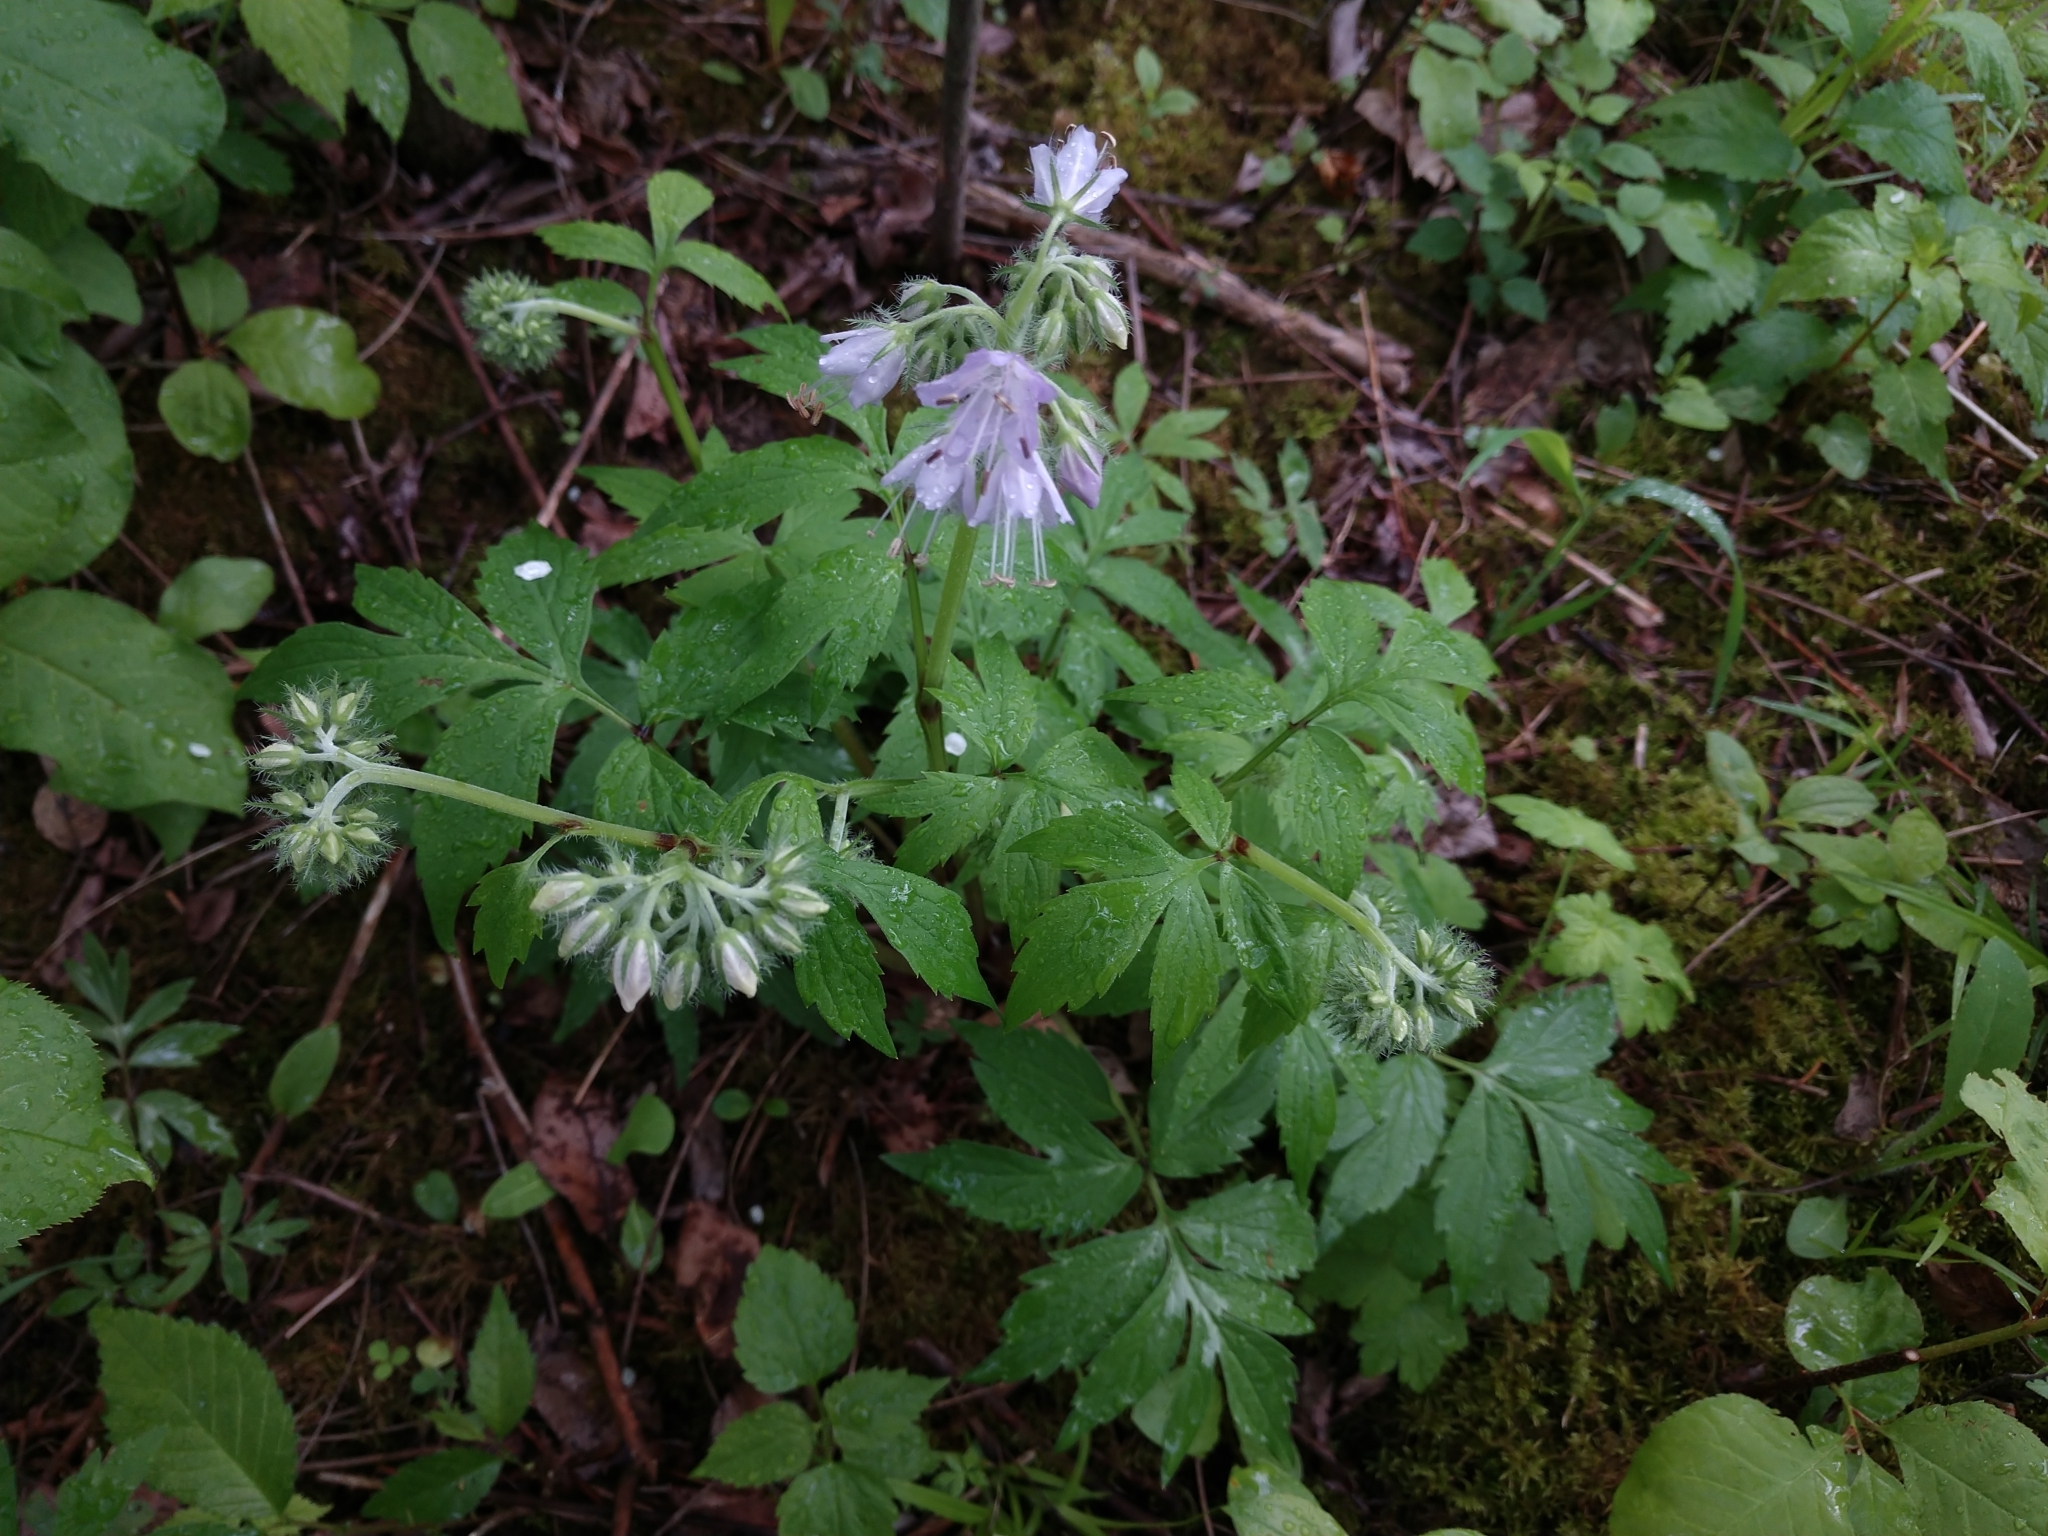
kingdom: Plantae
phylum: Tracheophyta
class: Magnoliopsida
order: Boraginales
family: Hydrophyllaceae
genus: Hydrophyllum
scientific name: Hydrophyllum virginianum
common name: Virginia waterleaf
